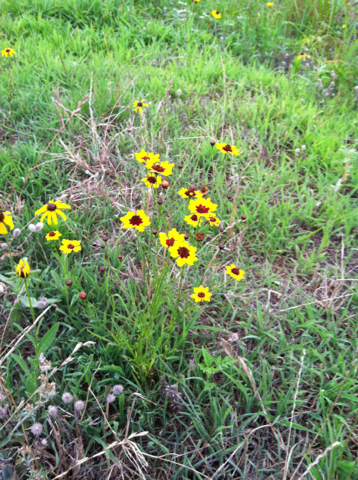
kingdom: Plantae
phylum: Tracheophyta
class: Magnoliopsida
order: Asterales
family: Asteraceae
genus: Coreopsis
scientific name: Coreopsis tinctoria
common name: Garden tickseed
